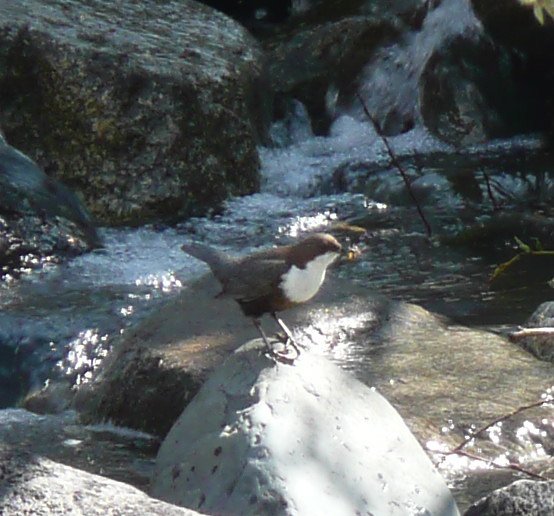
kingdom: Animalia
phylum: Chordata
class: Aves
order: Passeriformes
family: Cinclidae
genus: Cinclus
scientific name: Cinclus cinclus
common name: White-throated dipper
